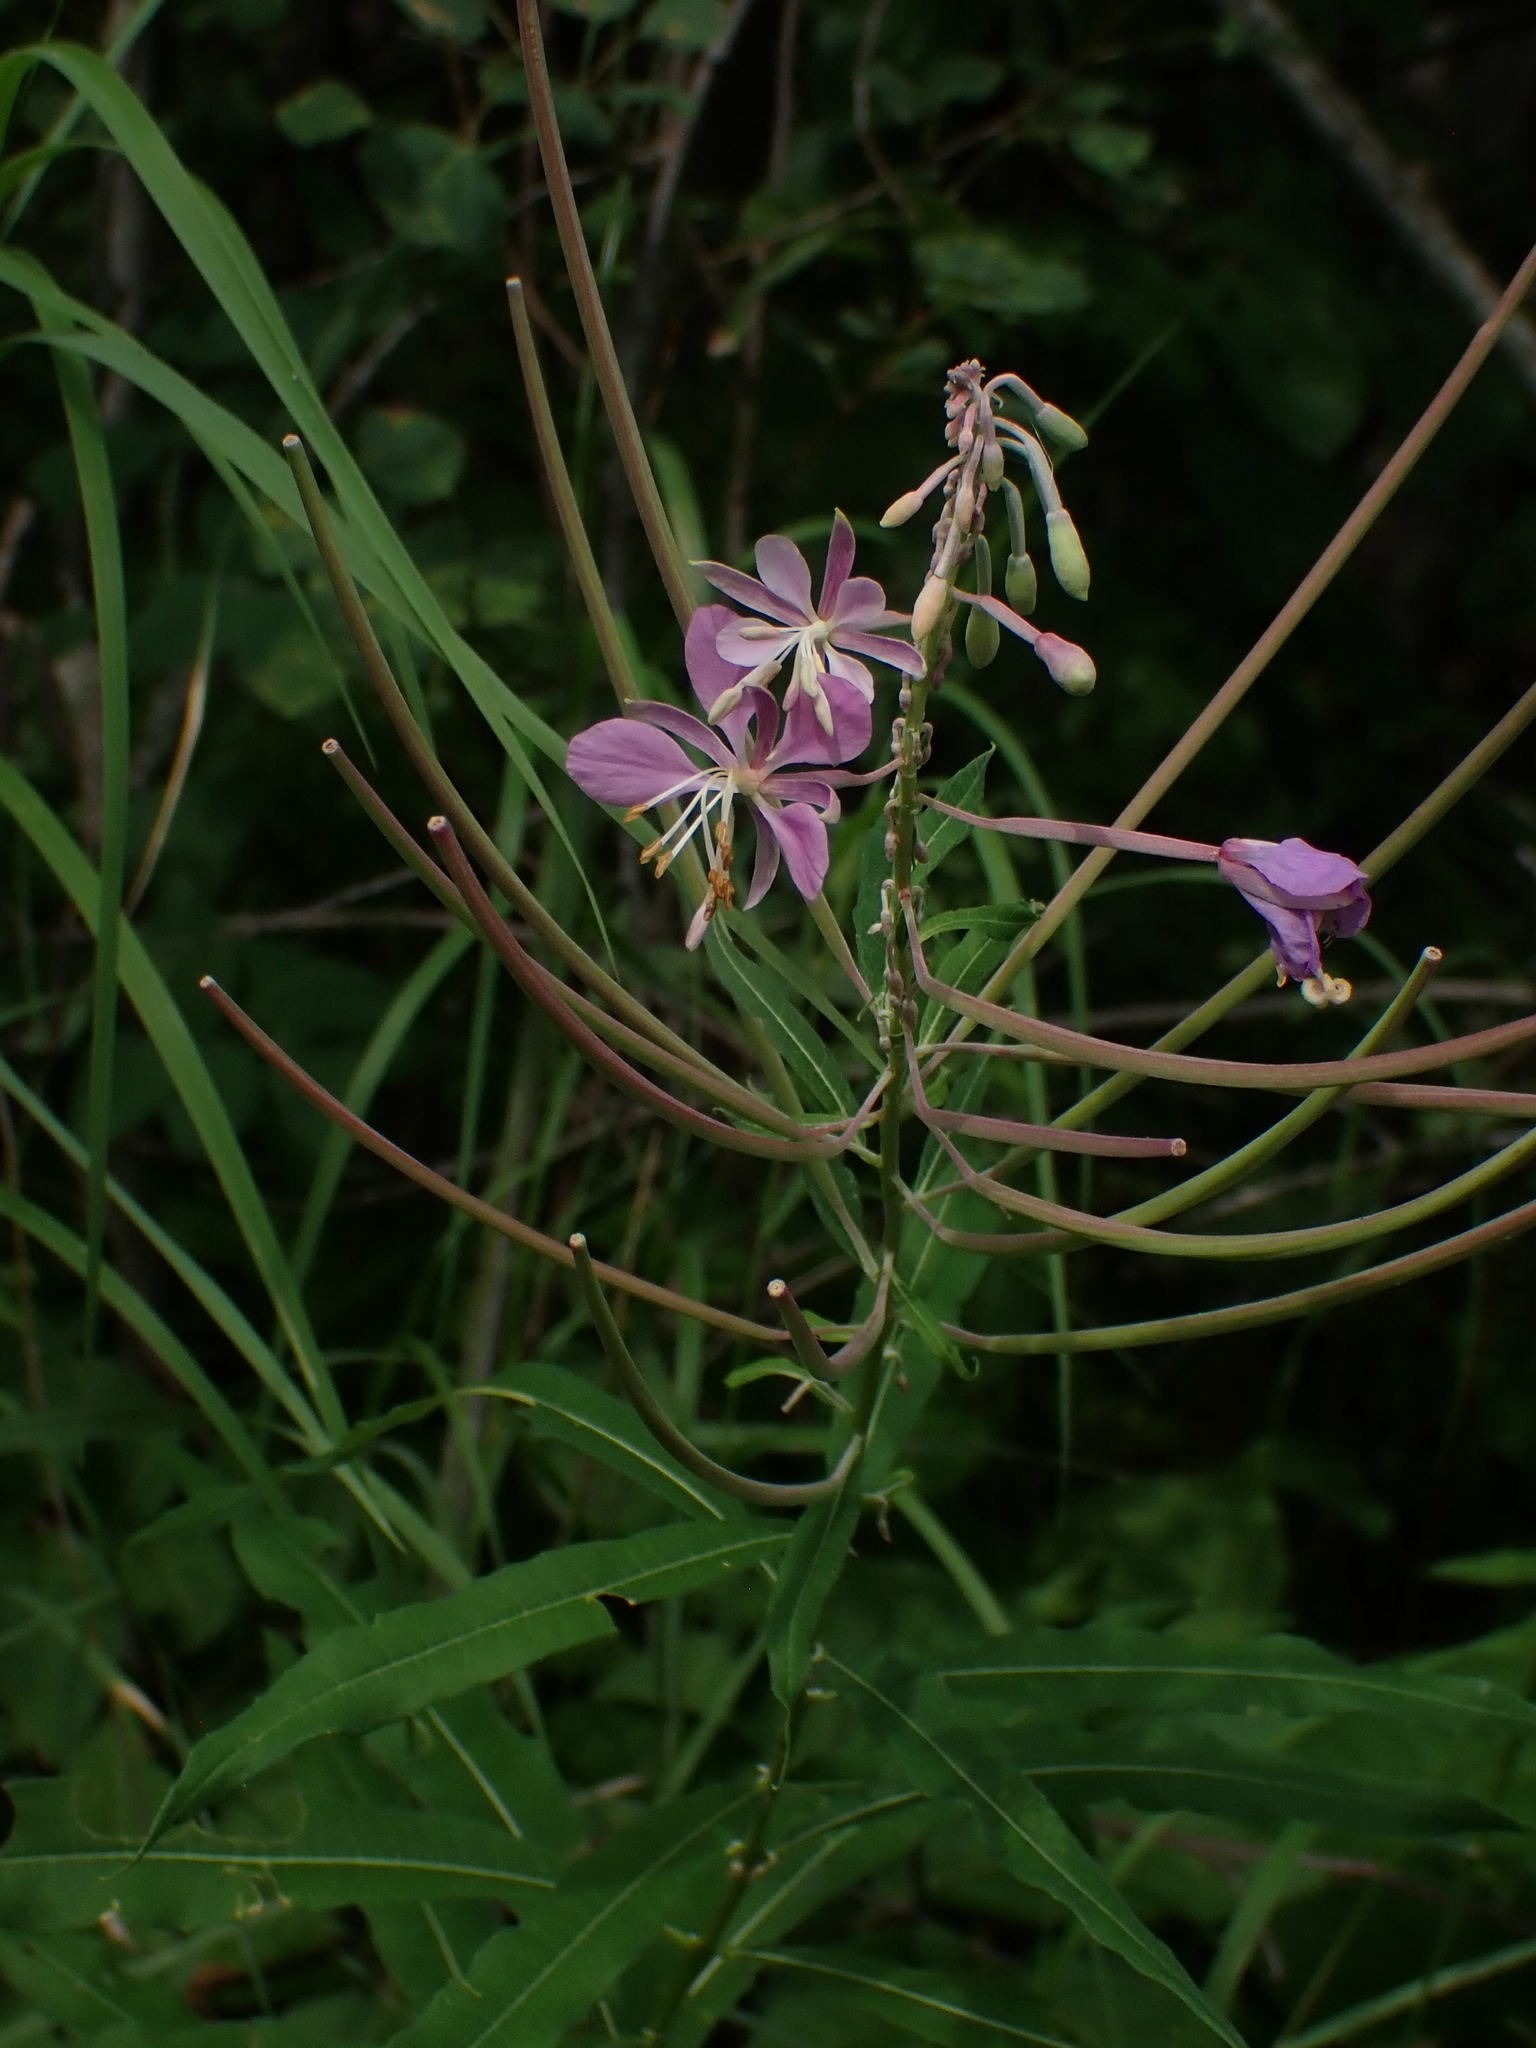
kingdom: Plantae
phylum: Tracheophyta
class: Magnoliopsida
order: Myrtales
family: Onagraceae
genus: Chamaenerion
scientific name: Chamaenerion angustifolium
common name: Fireweed
